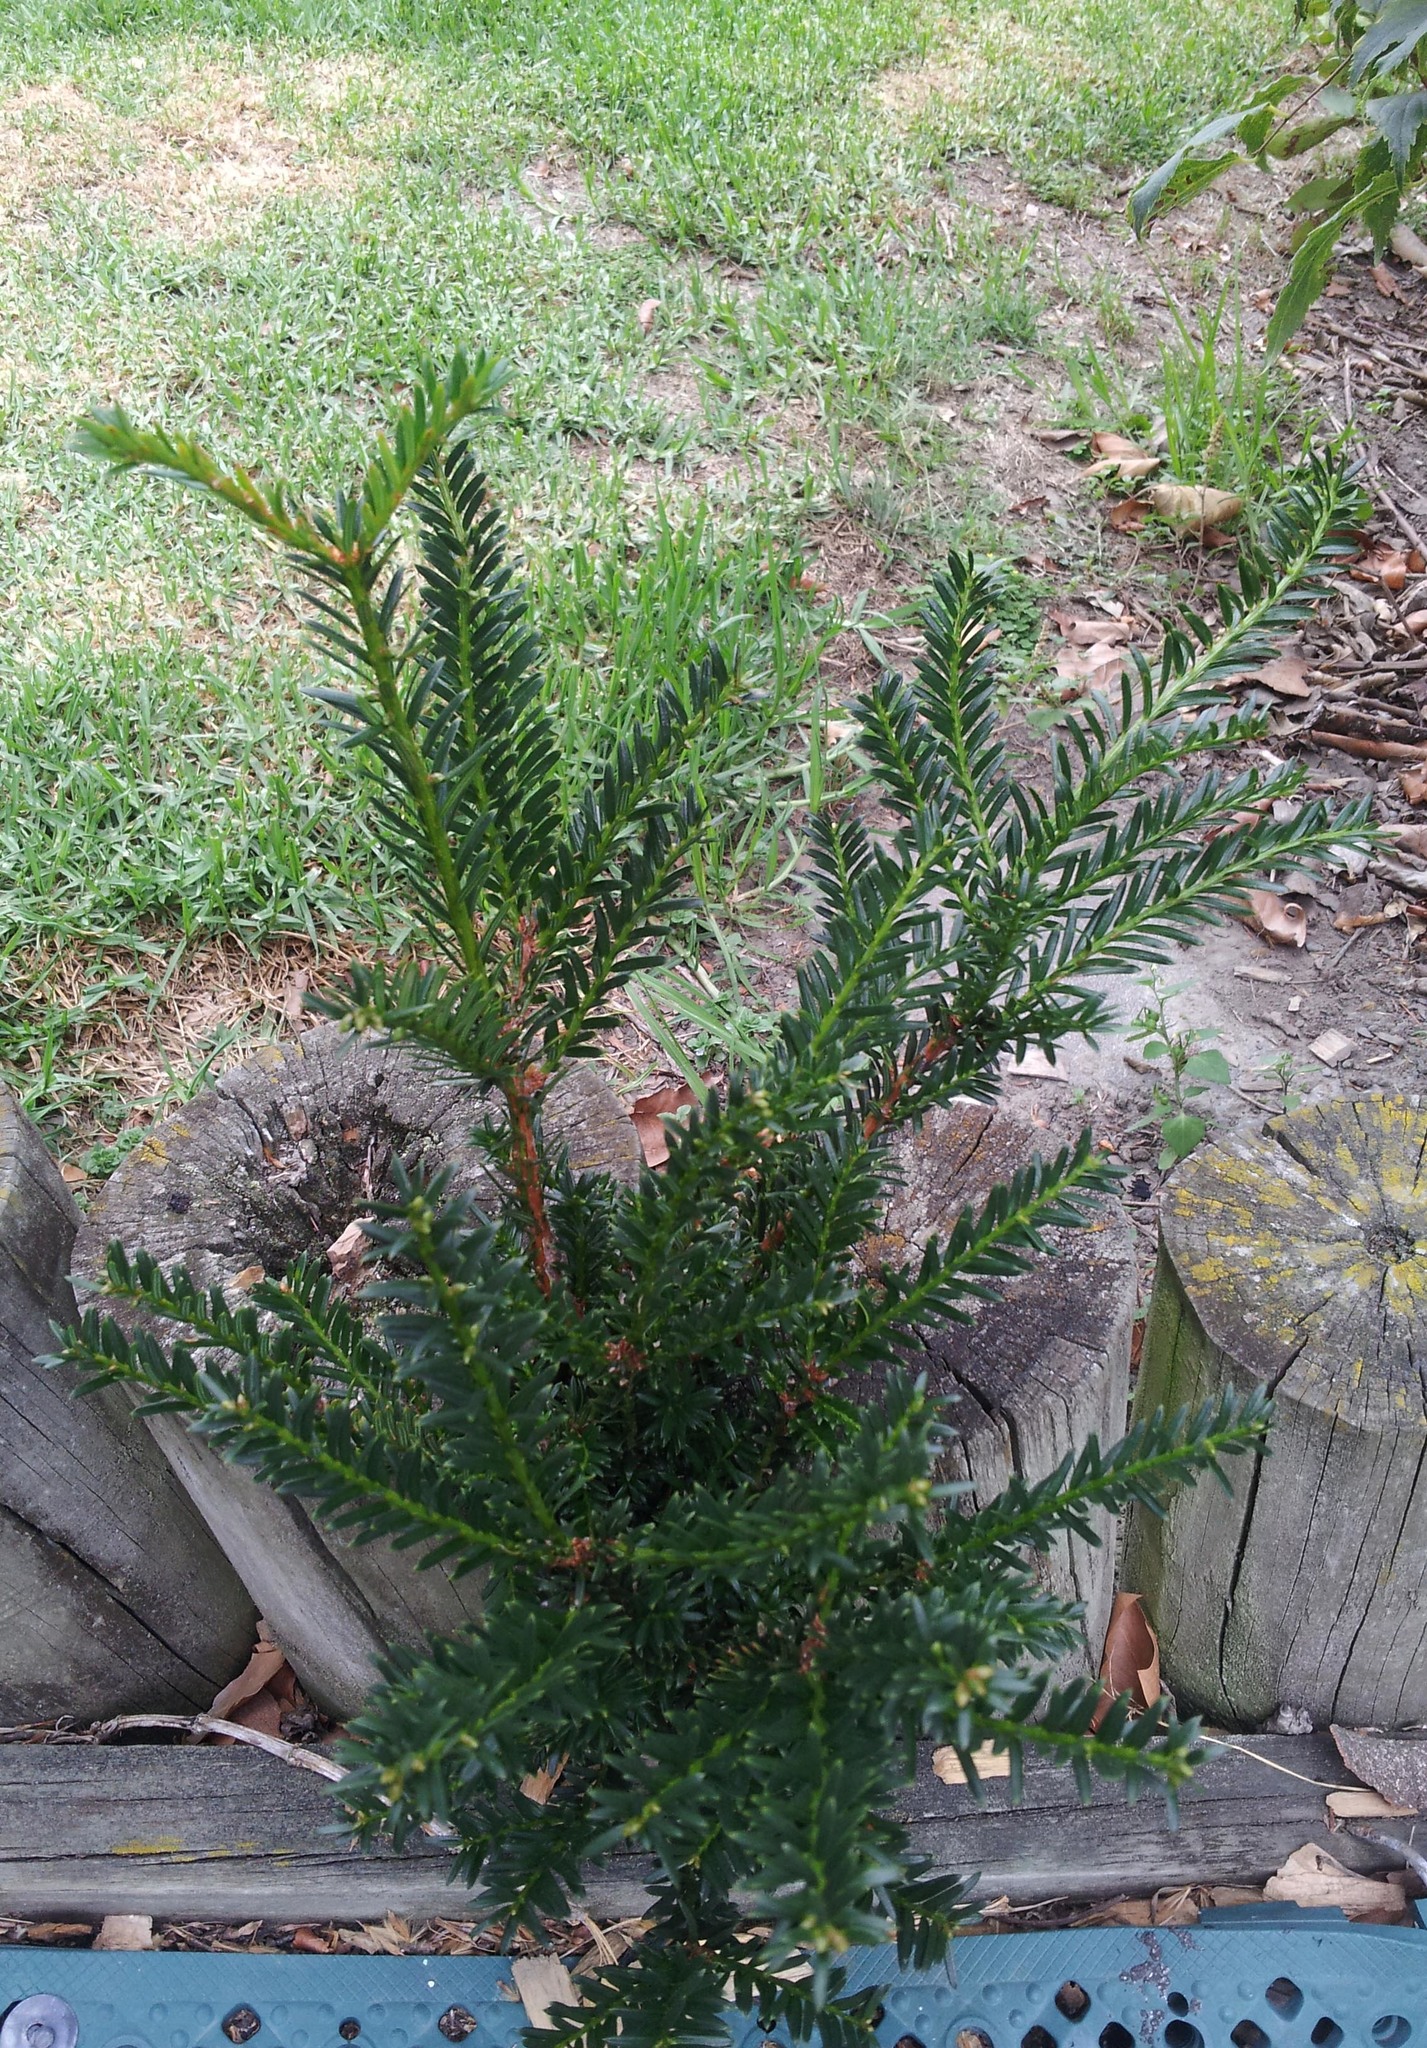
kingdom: Plantae
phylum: Tracheophyta
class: Pinopsida
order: Pinales
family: Taxaceae
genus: Taxus
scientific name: Taxus baccata
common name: Yew
